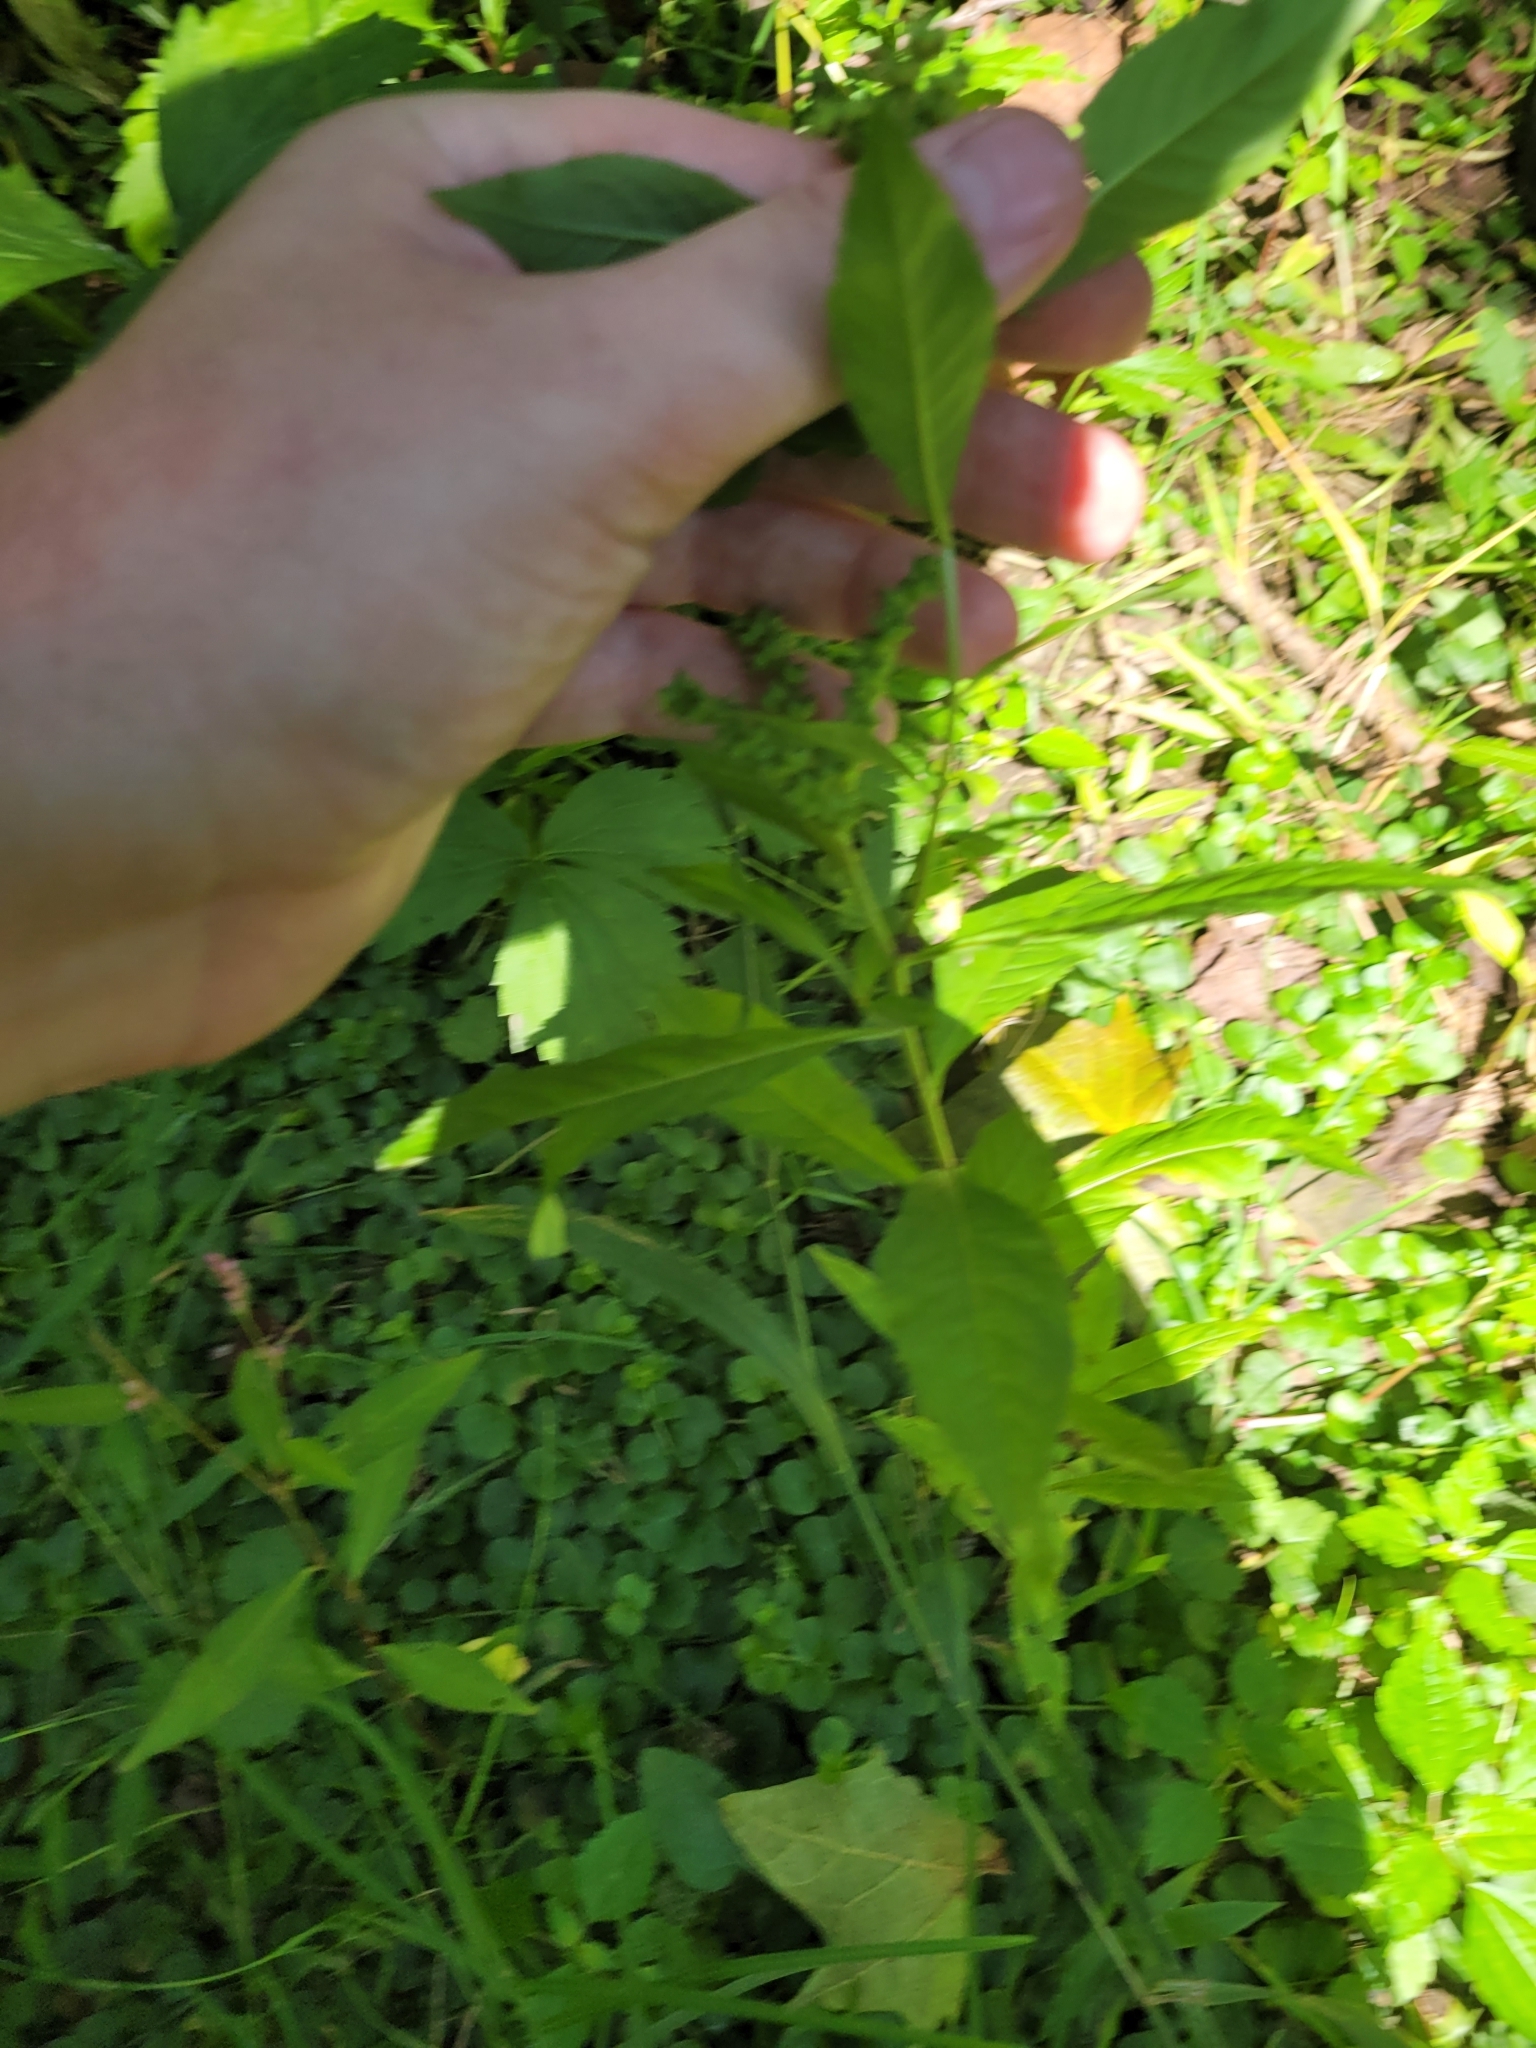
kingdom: Plantae
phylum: Tracheophyta
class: Magnoliopsida
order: Saxifragales
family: Penthoraceae
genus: Penthorum
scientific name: Penthorum sedoides
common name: Ditch stonecrop
